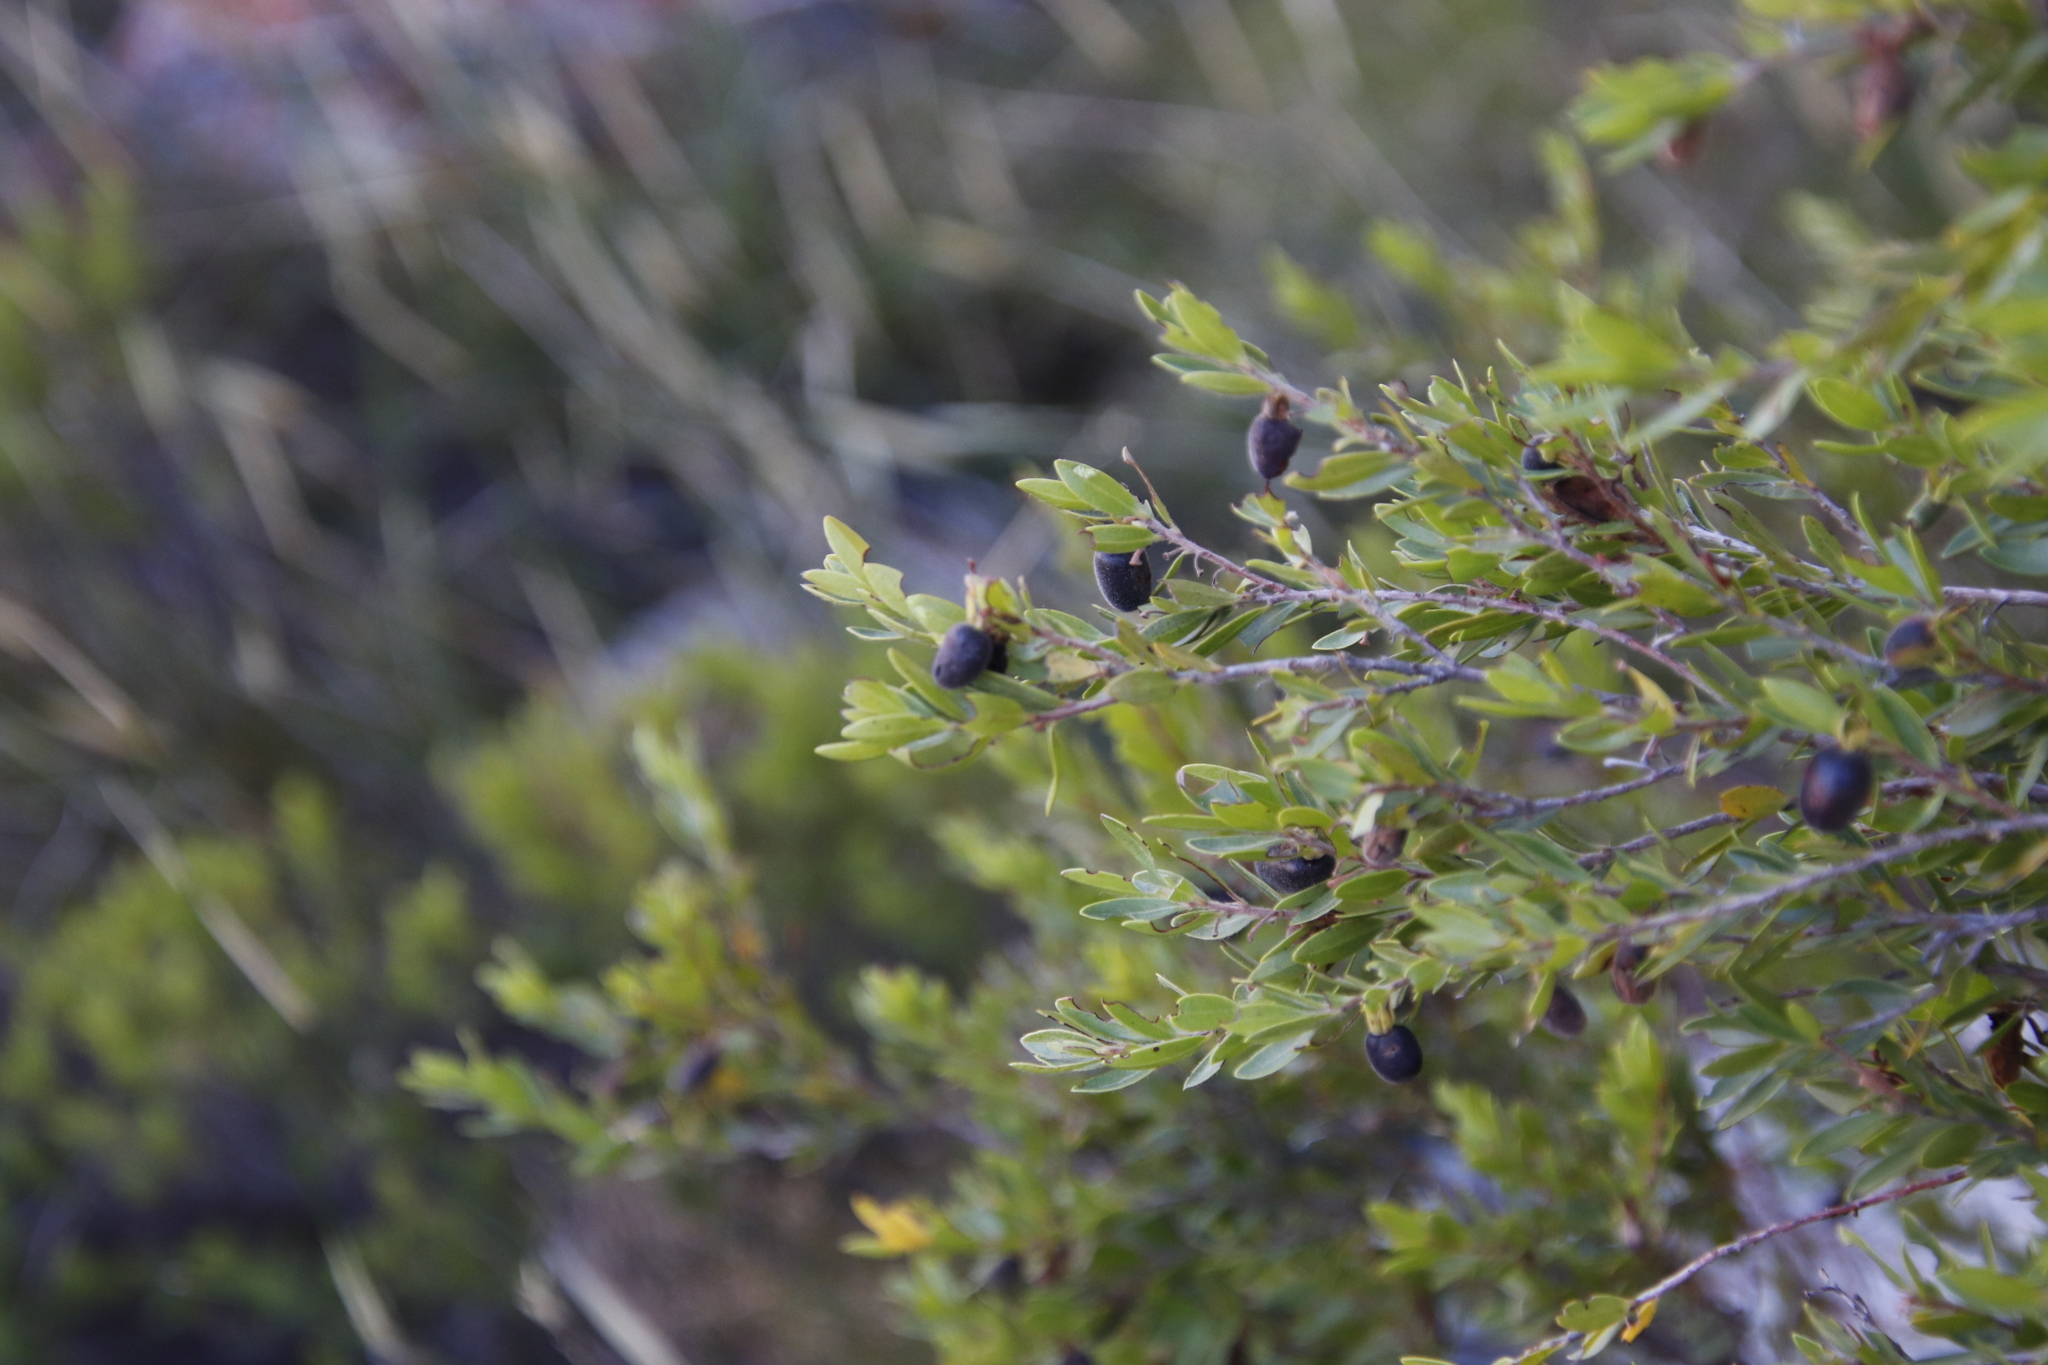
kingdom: Plantae
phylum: Tracheophyta
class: Magnoliopsida
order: Ericales
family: Ebenaceae
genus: Diospyros
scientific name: Diospyros glabra
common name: Fynbos star apple
